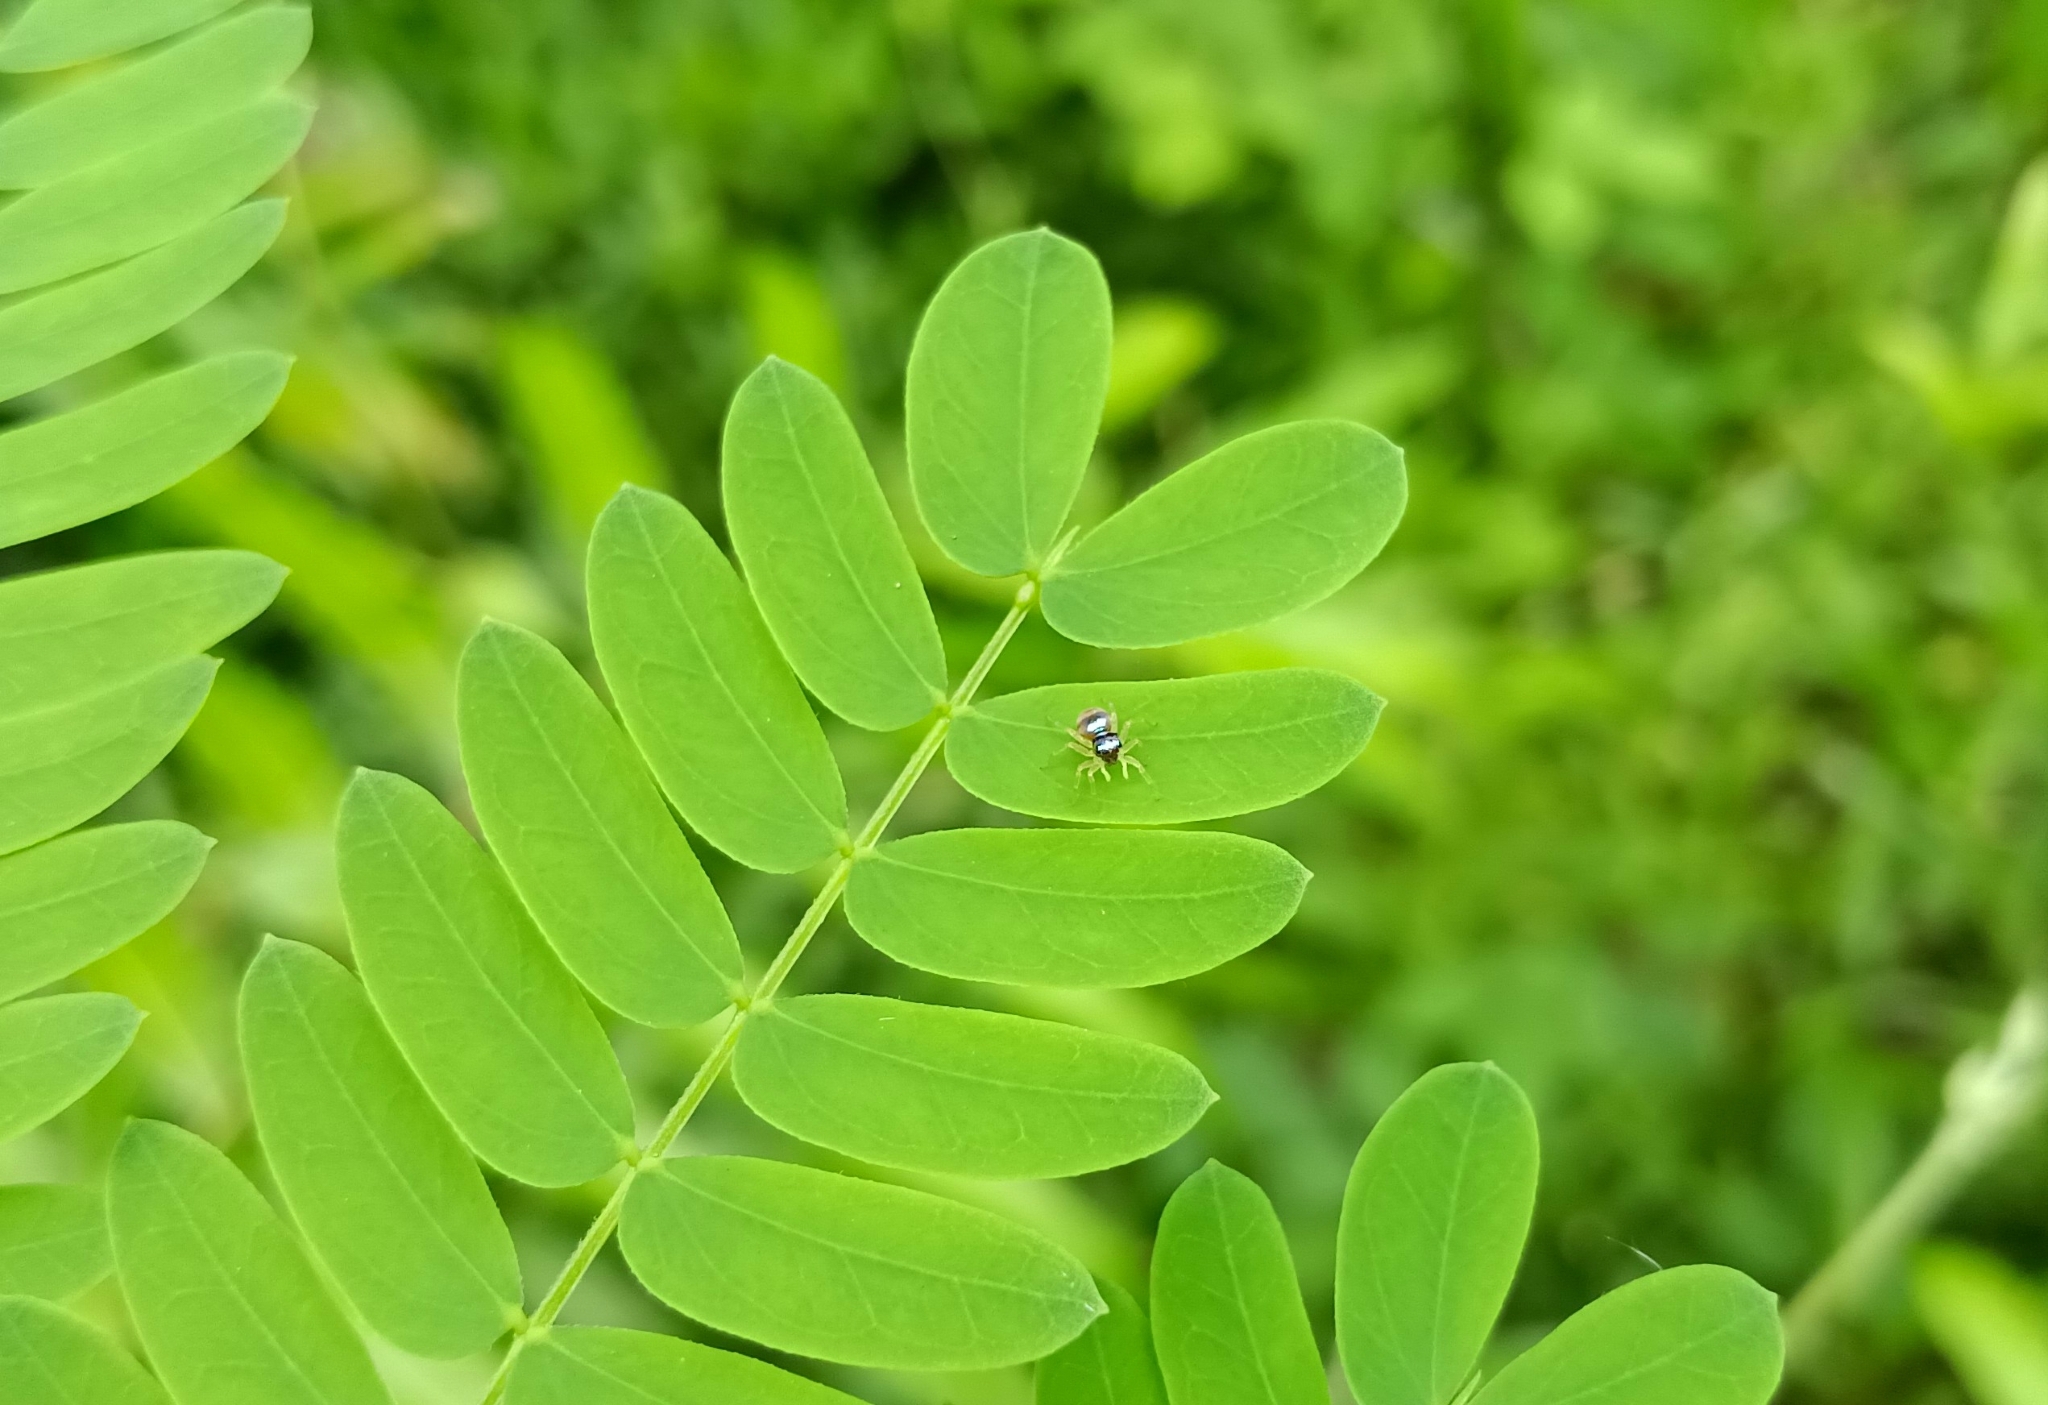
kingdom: Animalia
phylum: Arthropoda
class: Arachnida
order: Araneae
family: Salticidae
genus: Phintella
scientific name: Phintella vittata
